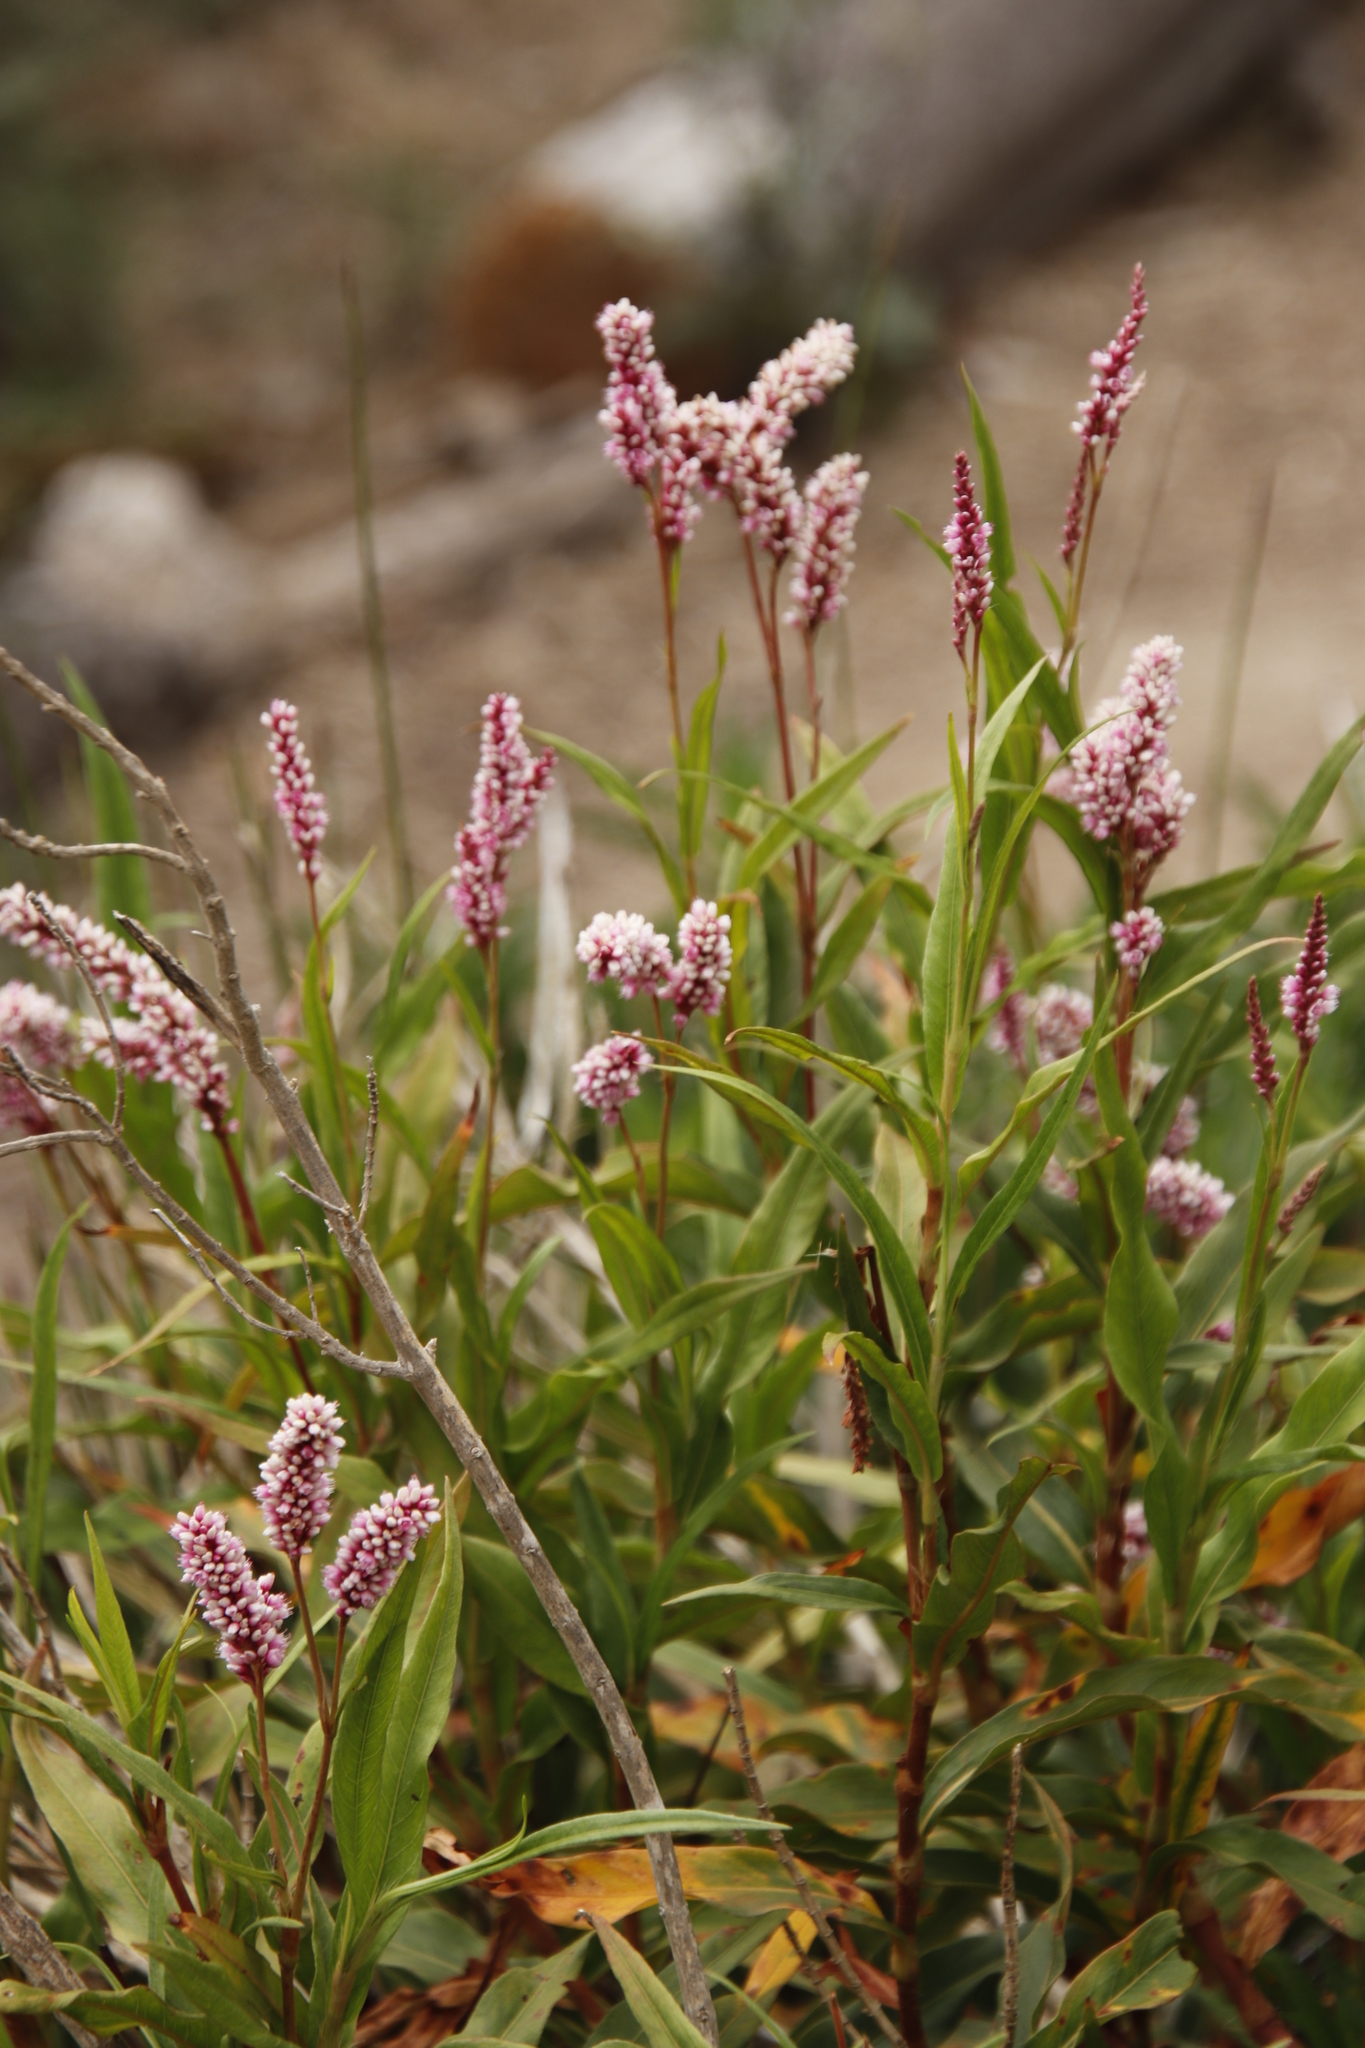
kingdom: Plantae
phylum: Tracheophyta
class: Magnoliopsida
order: Caryophyllales
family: Polygonaceae
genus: Persicaria
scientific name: Persicaria madagascariensis
